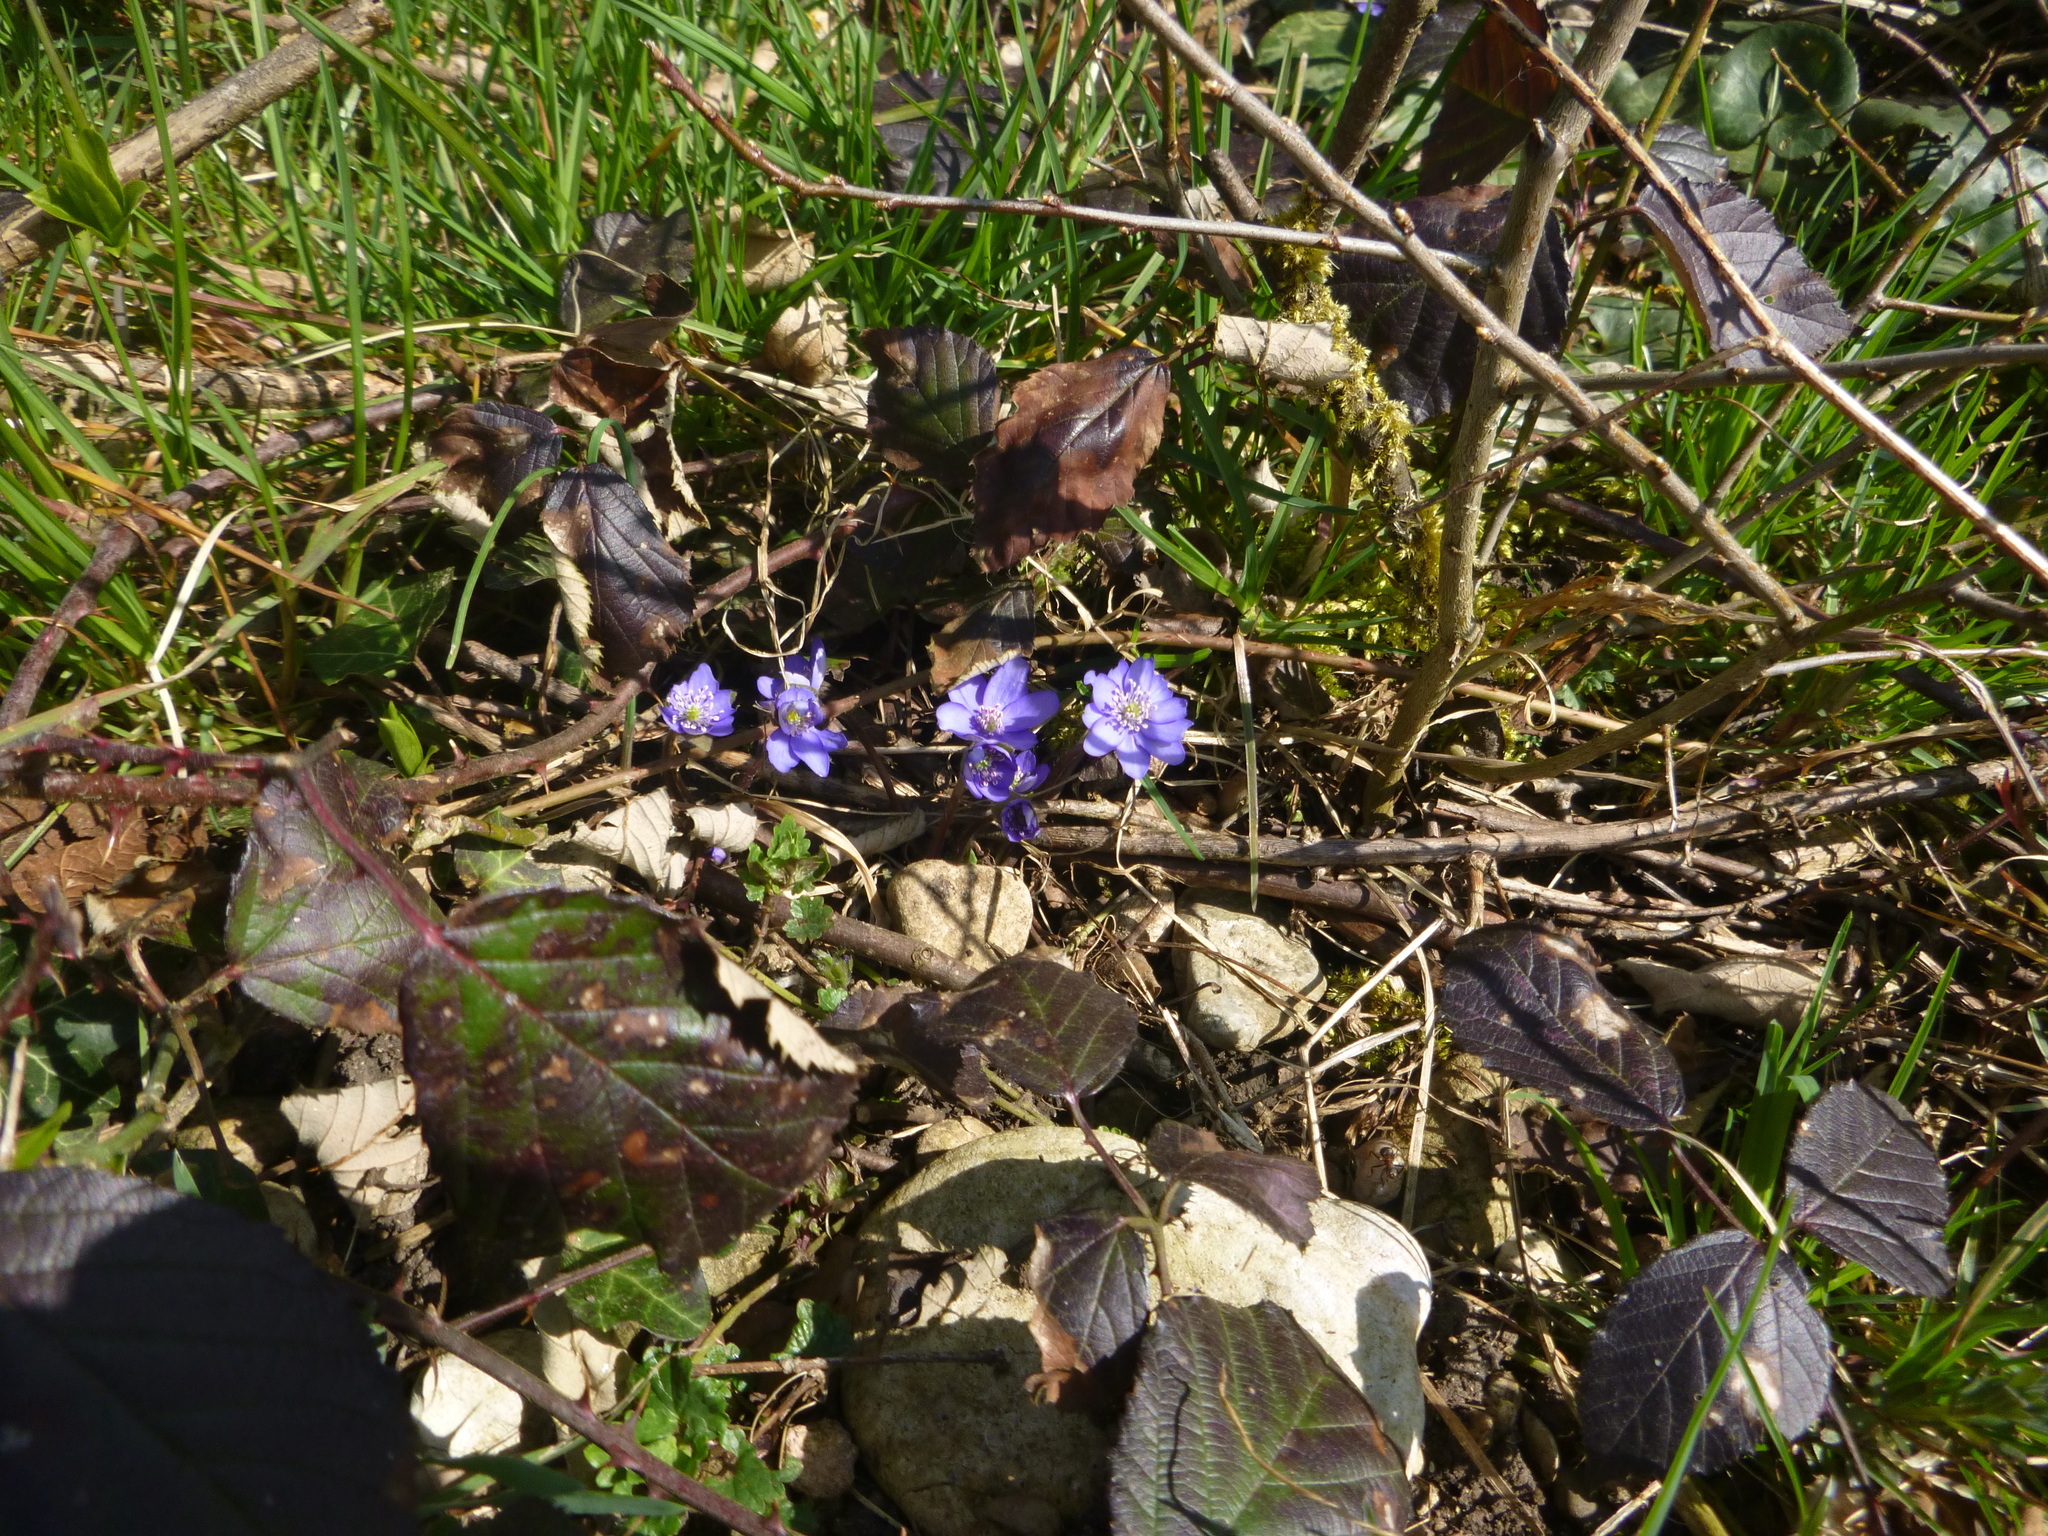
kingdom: Plantae
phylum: Tracheophyta
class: Magnoliopsida
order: Ranunculales
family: Ranunculaceae
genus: Hepatica
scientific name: Hepatica nobilis
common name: Liverleaf
